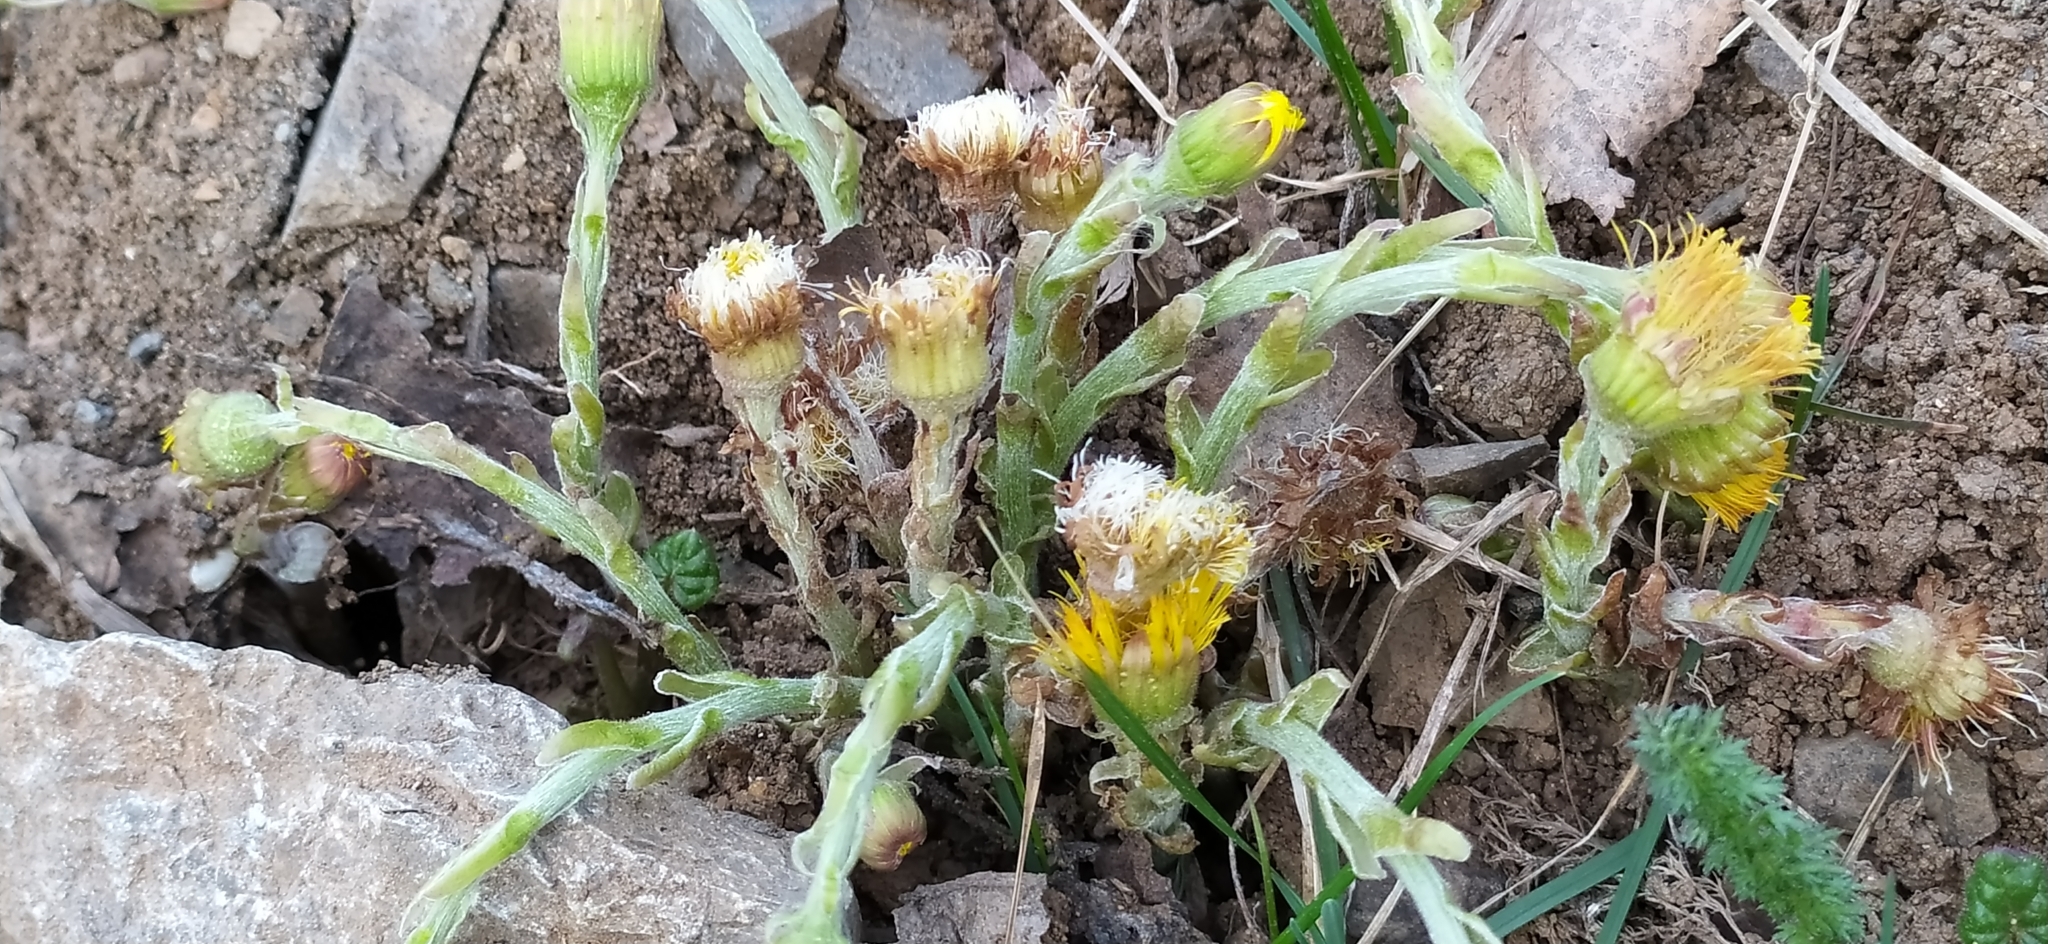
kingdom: Plantae
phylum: Tracheophyta
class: Magnoliopsida
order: Asterales
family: Asteraceae
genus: Tussilago
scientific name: Tussilago farfara
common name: Coltsfoot
